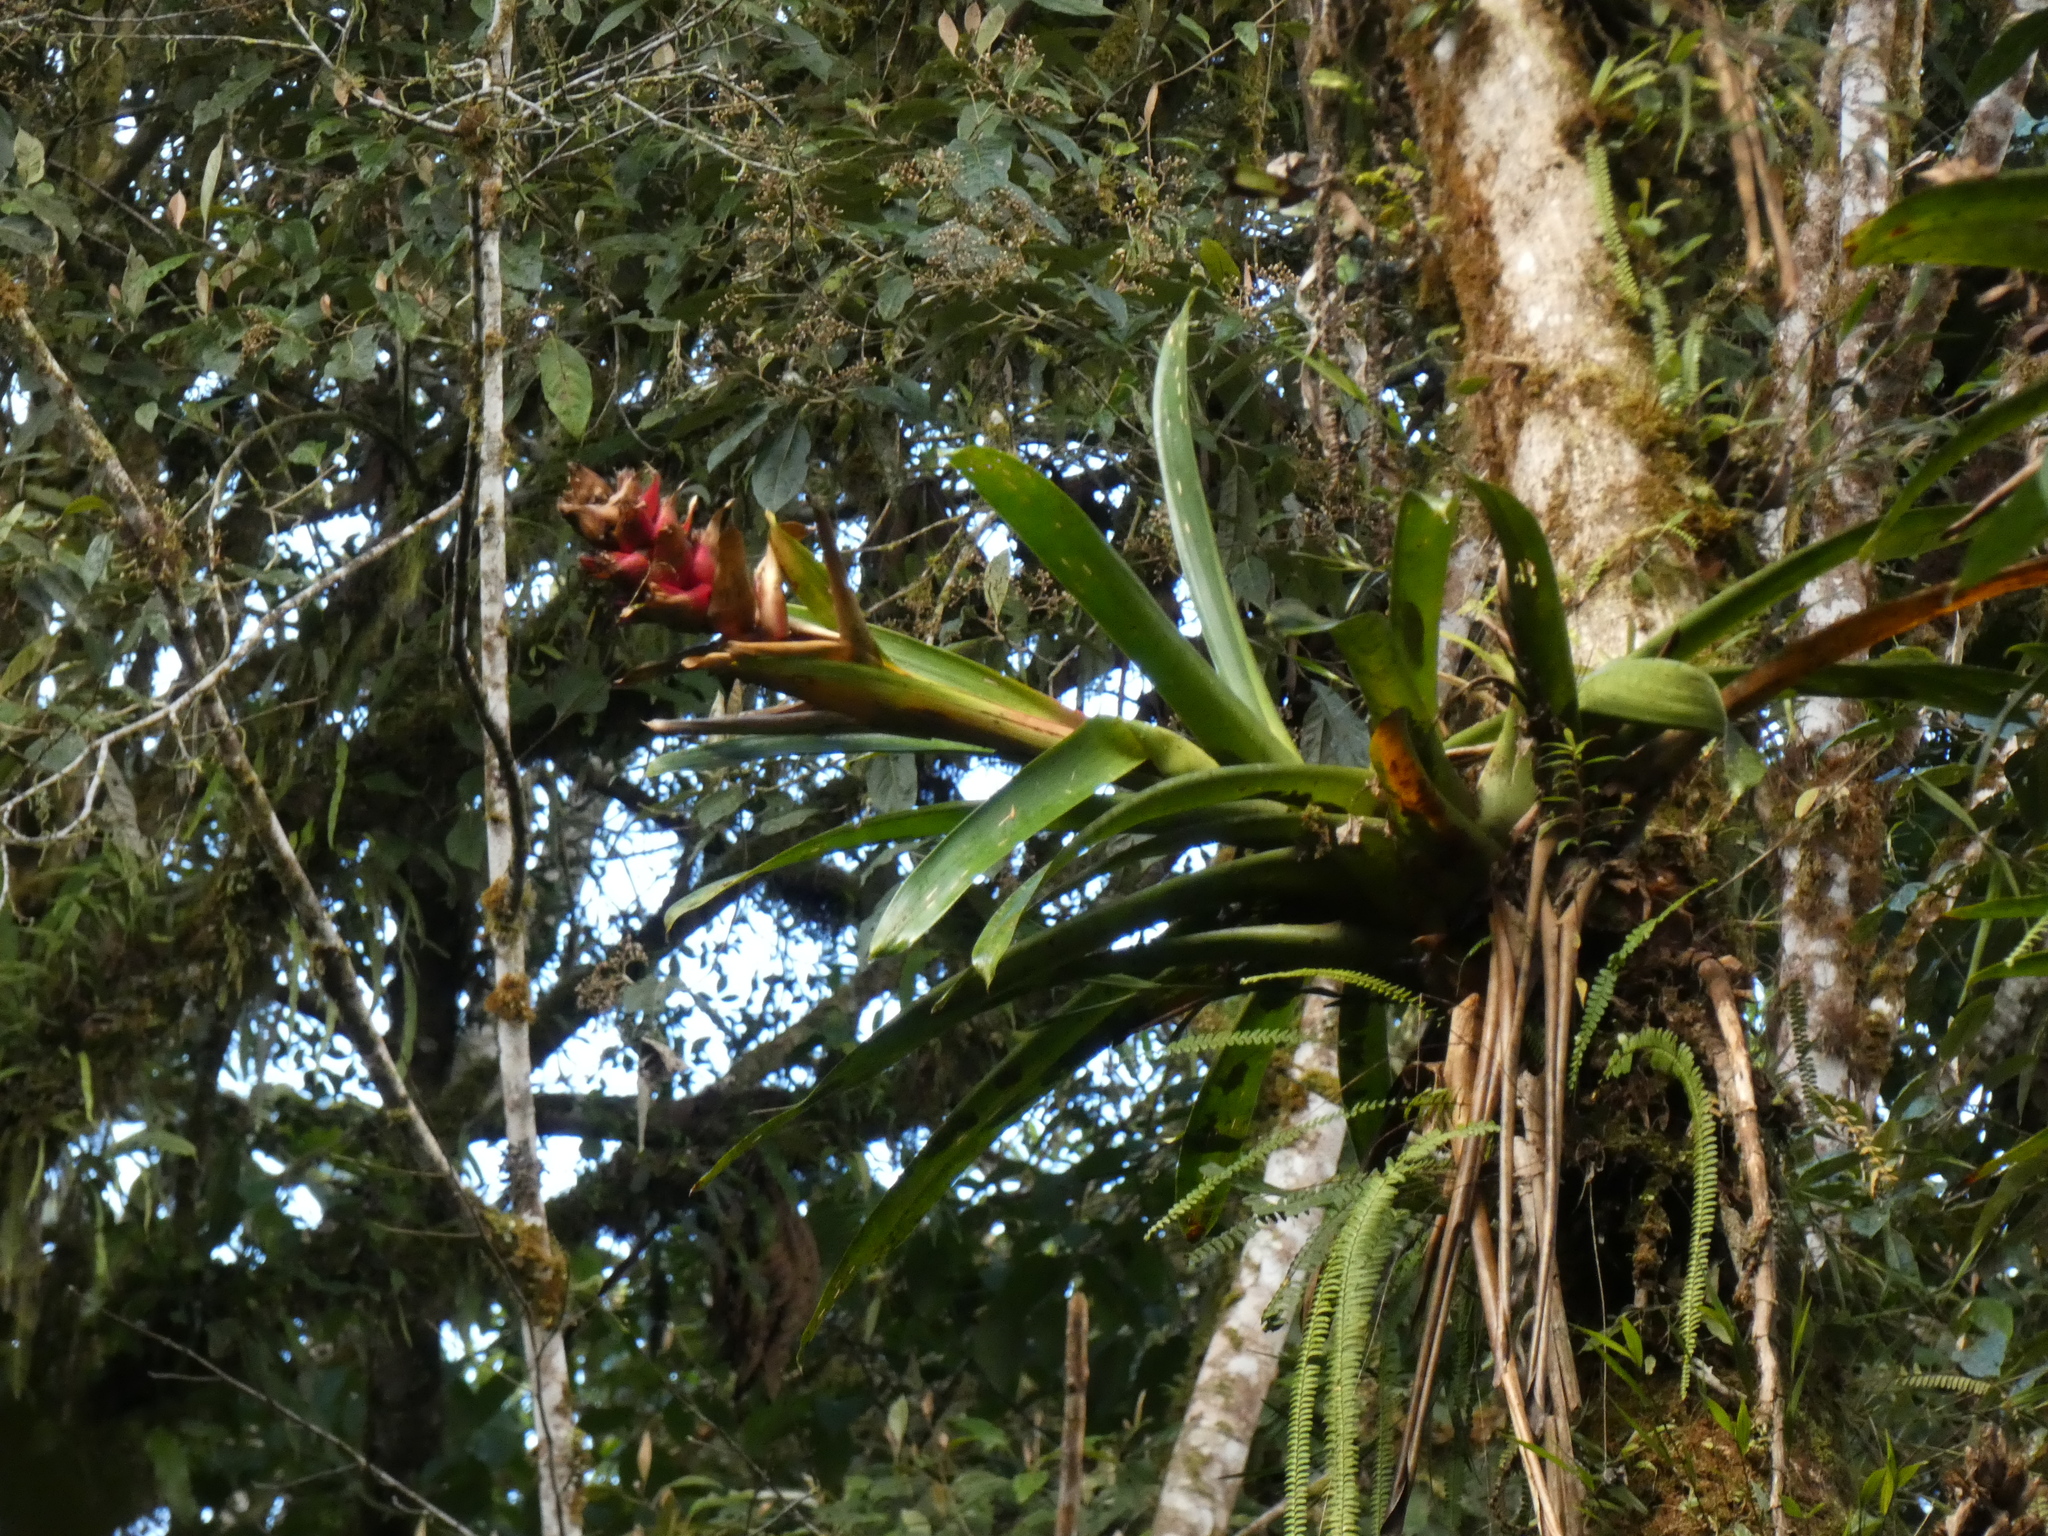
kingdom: Plantae
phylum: Tracheophyta
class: Liliopsida
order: Poales
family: Bromeliaceae
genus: Guzmania
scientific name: Guzmania variegata
